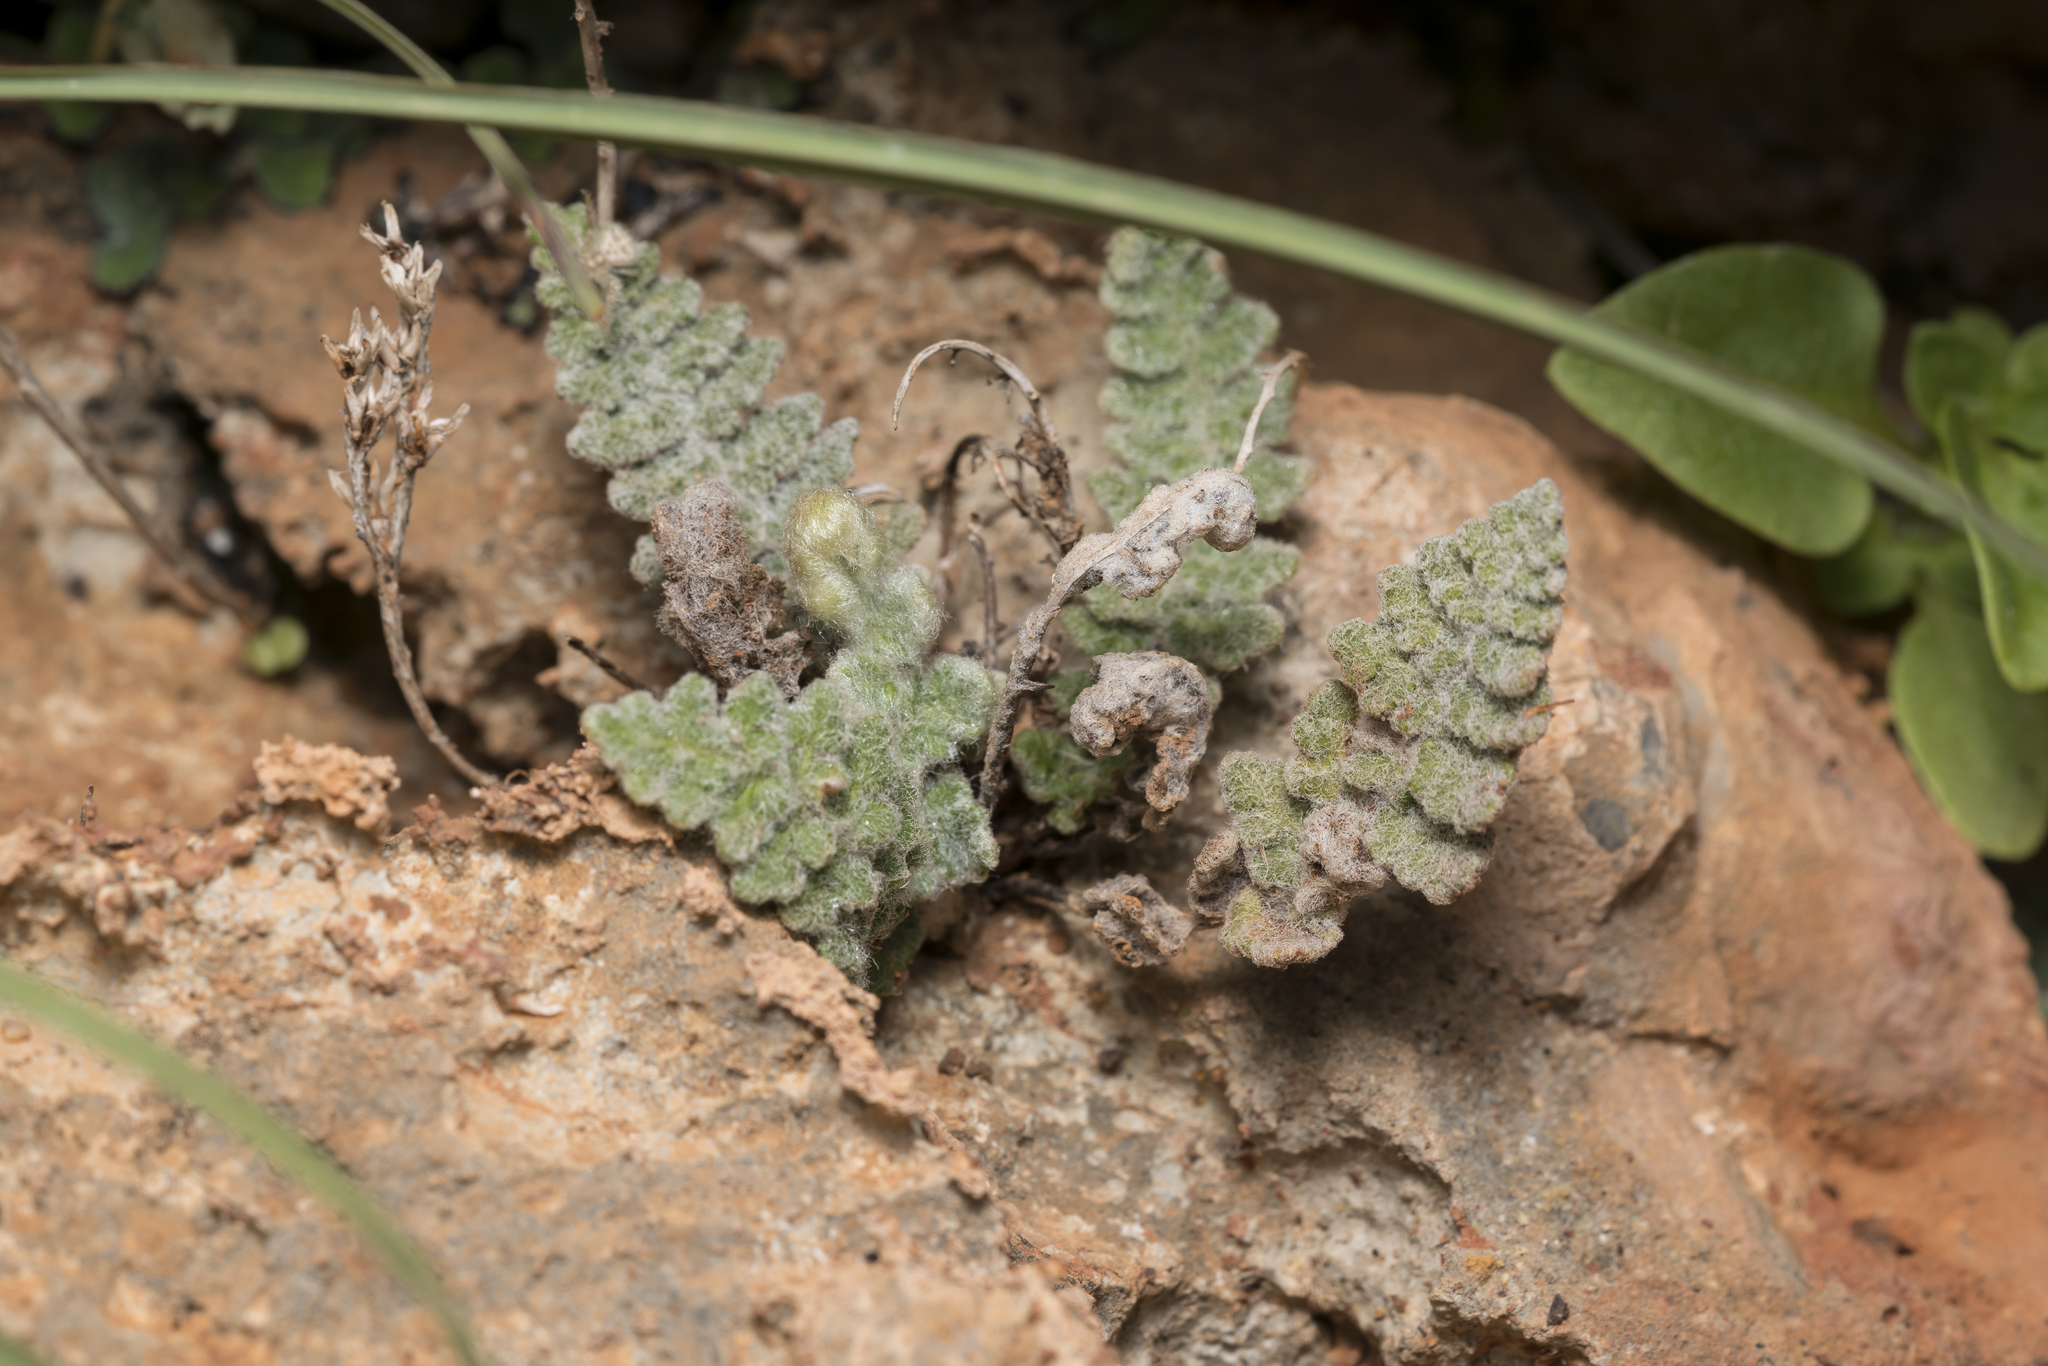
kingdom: Plantae
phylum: Tracheophyta
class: Polypodiopsida
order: Polypodiales
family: Pteridaceae
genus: Cosentinia
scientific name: Cosentinia vellea
